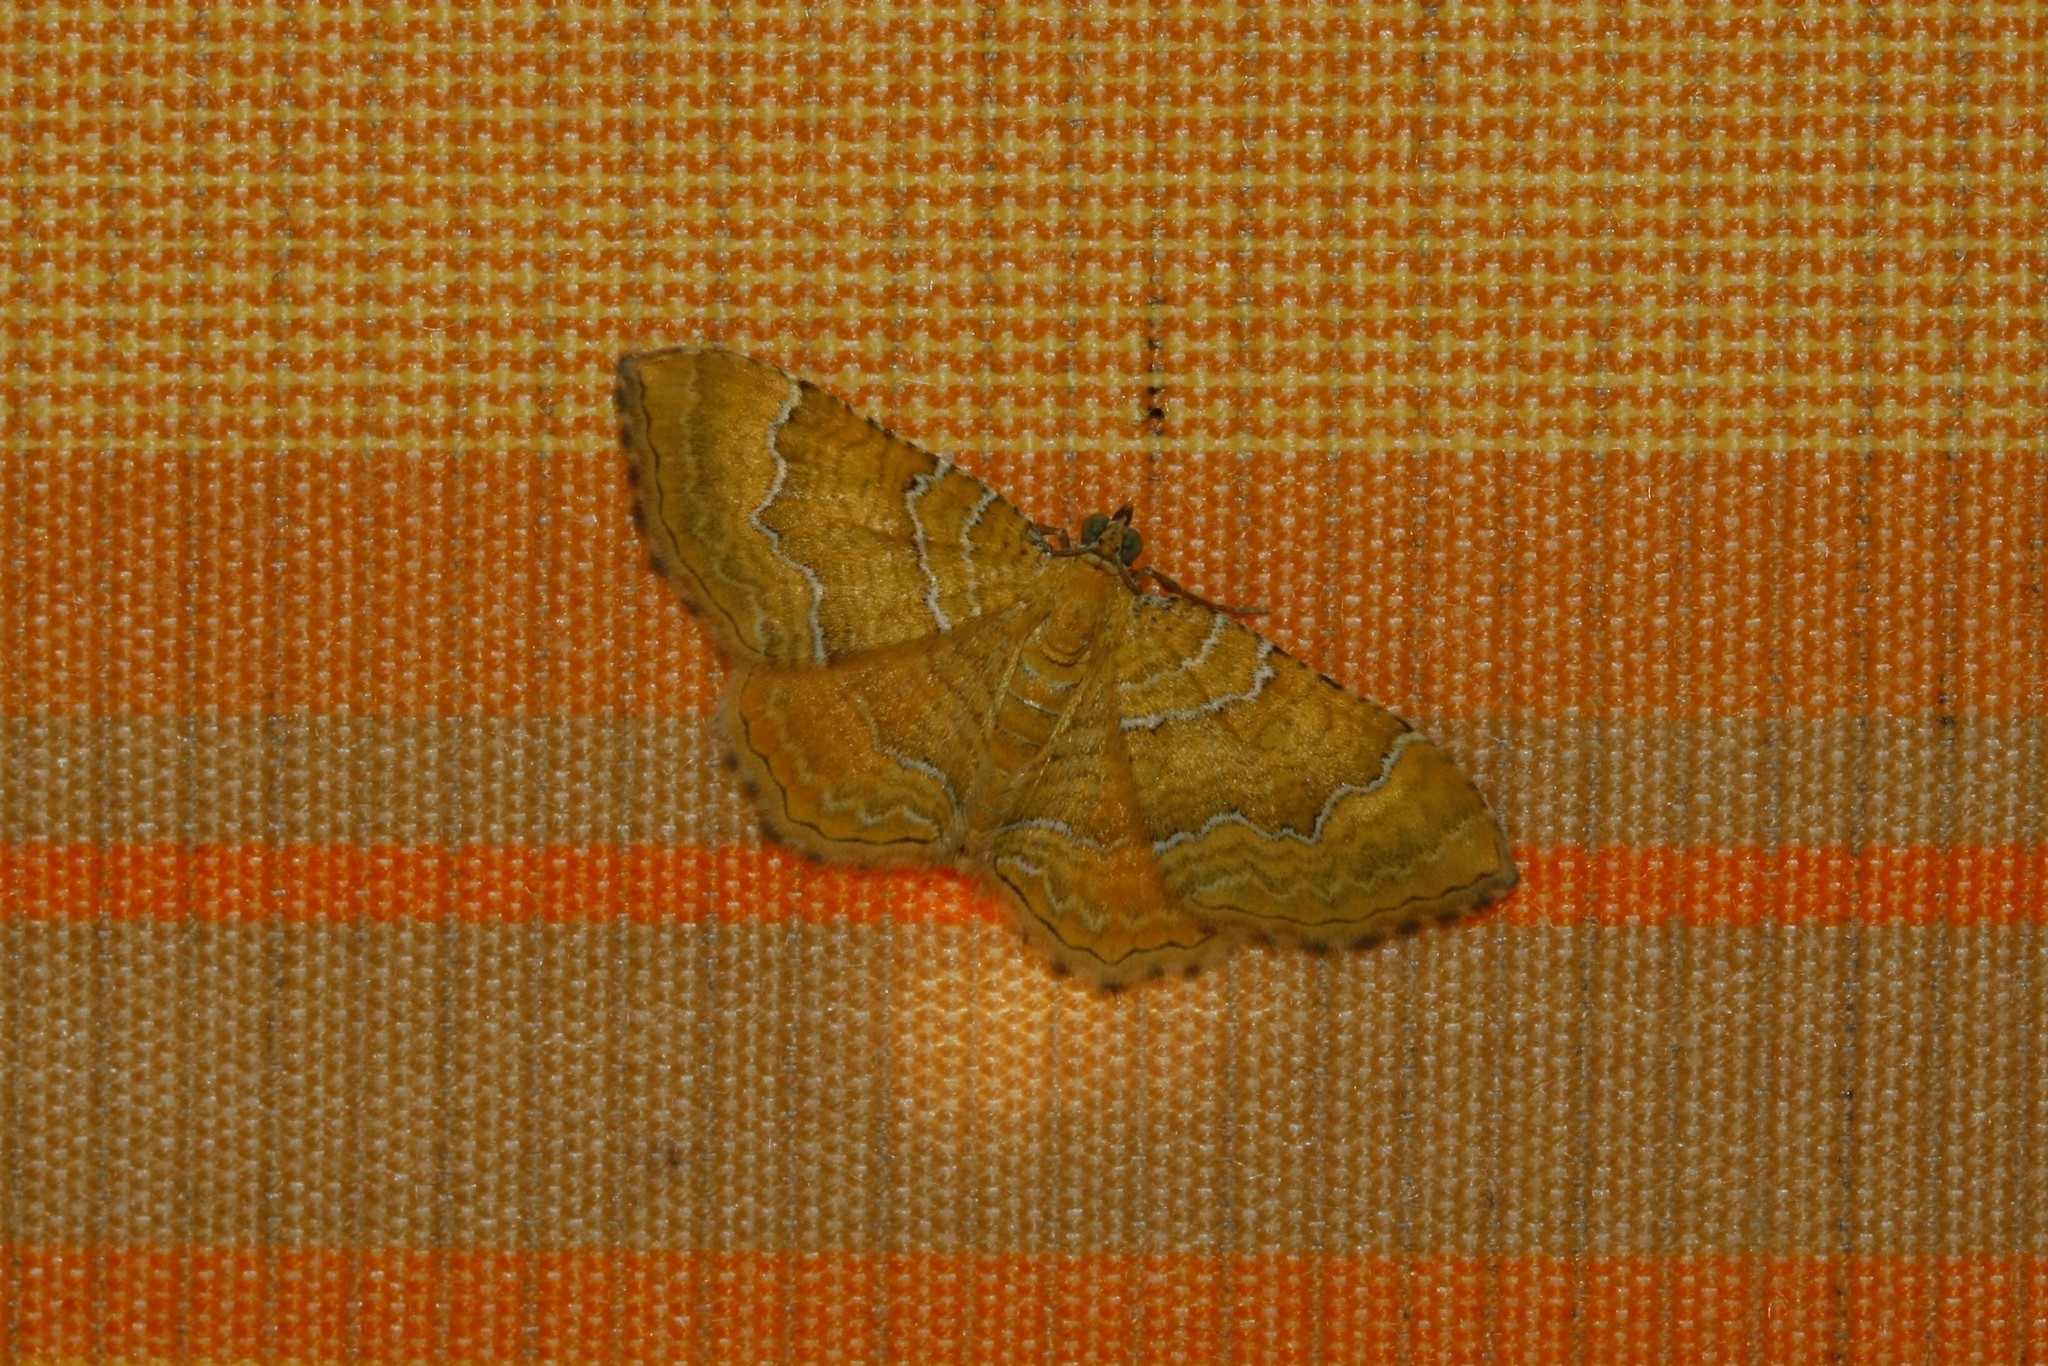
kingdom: Animalia
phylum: Arthropoda
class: Insecta
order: Lepidoptera
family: Geometridae
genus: Camptogramma
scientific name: Camptogramma bilineata
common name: Yellow shell
